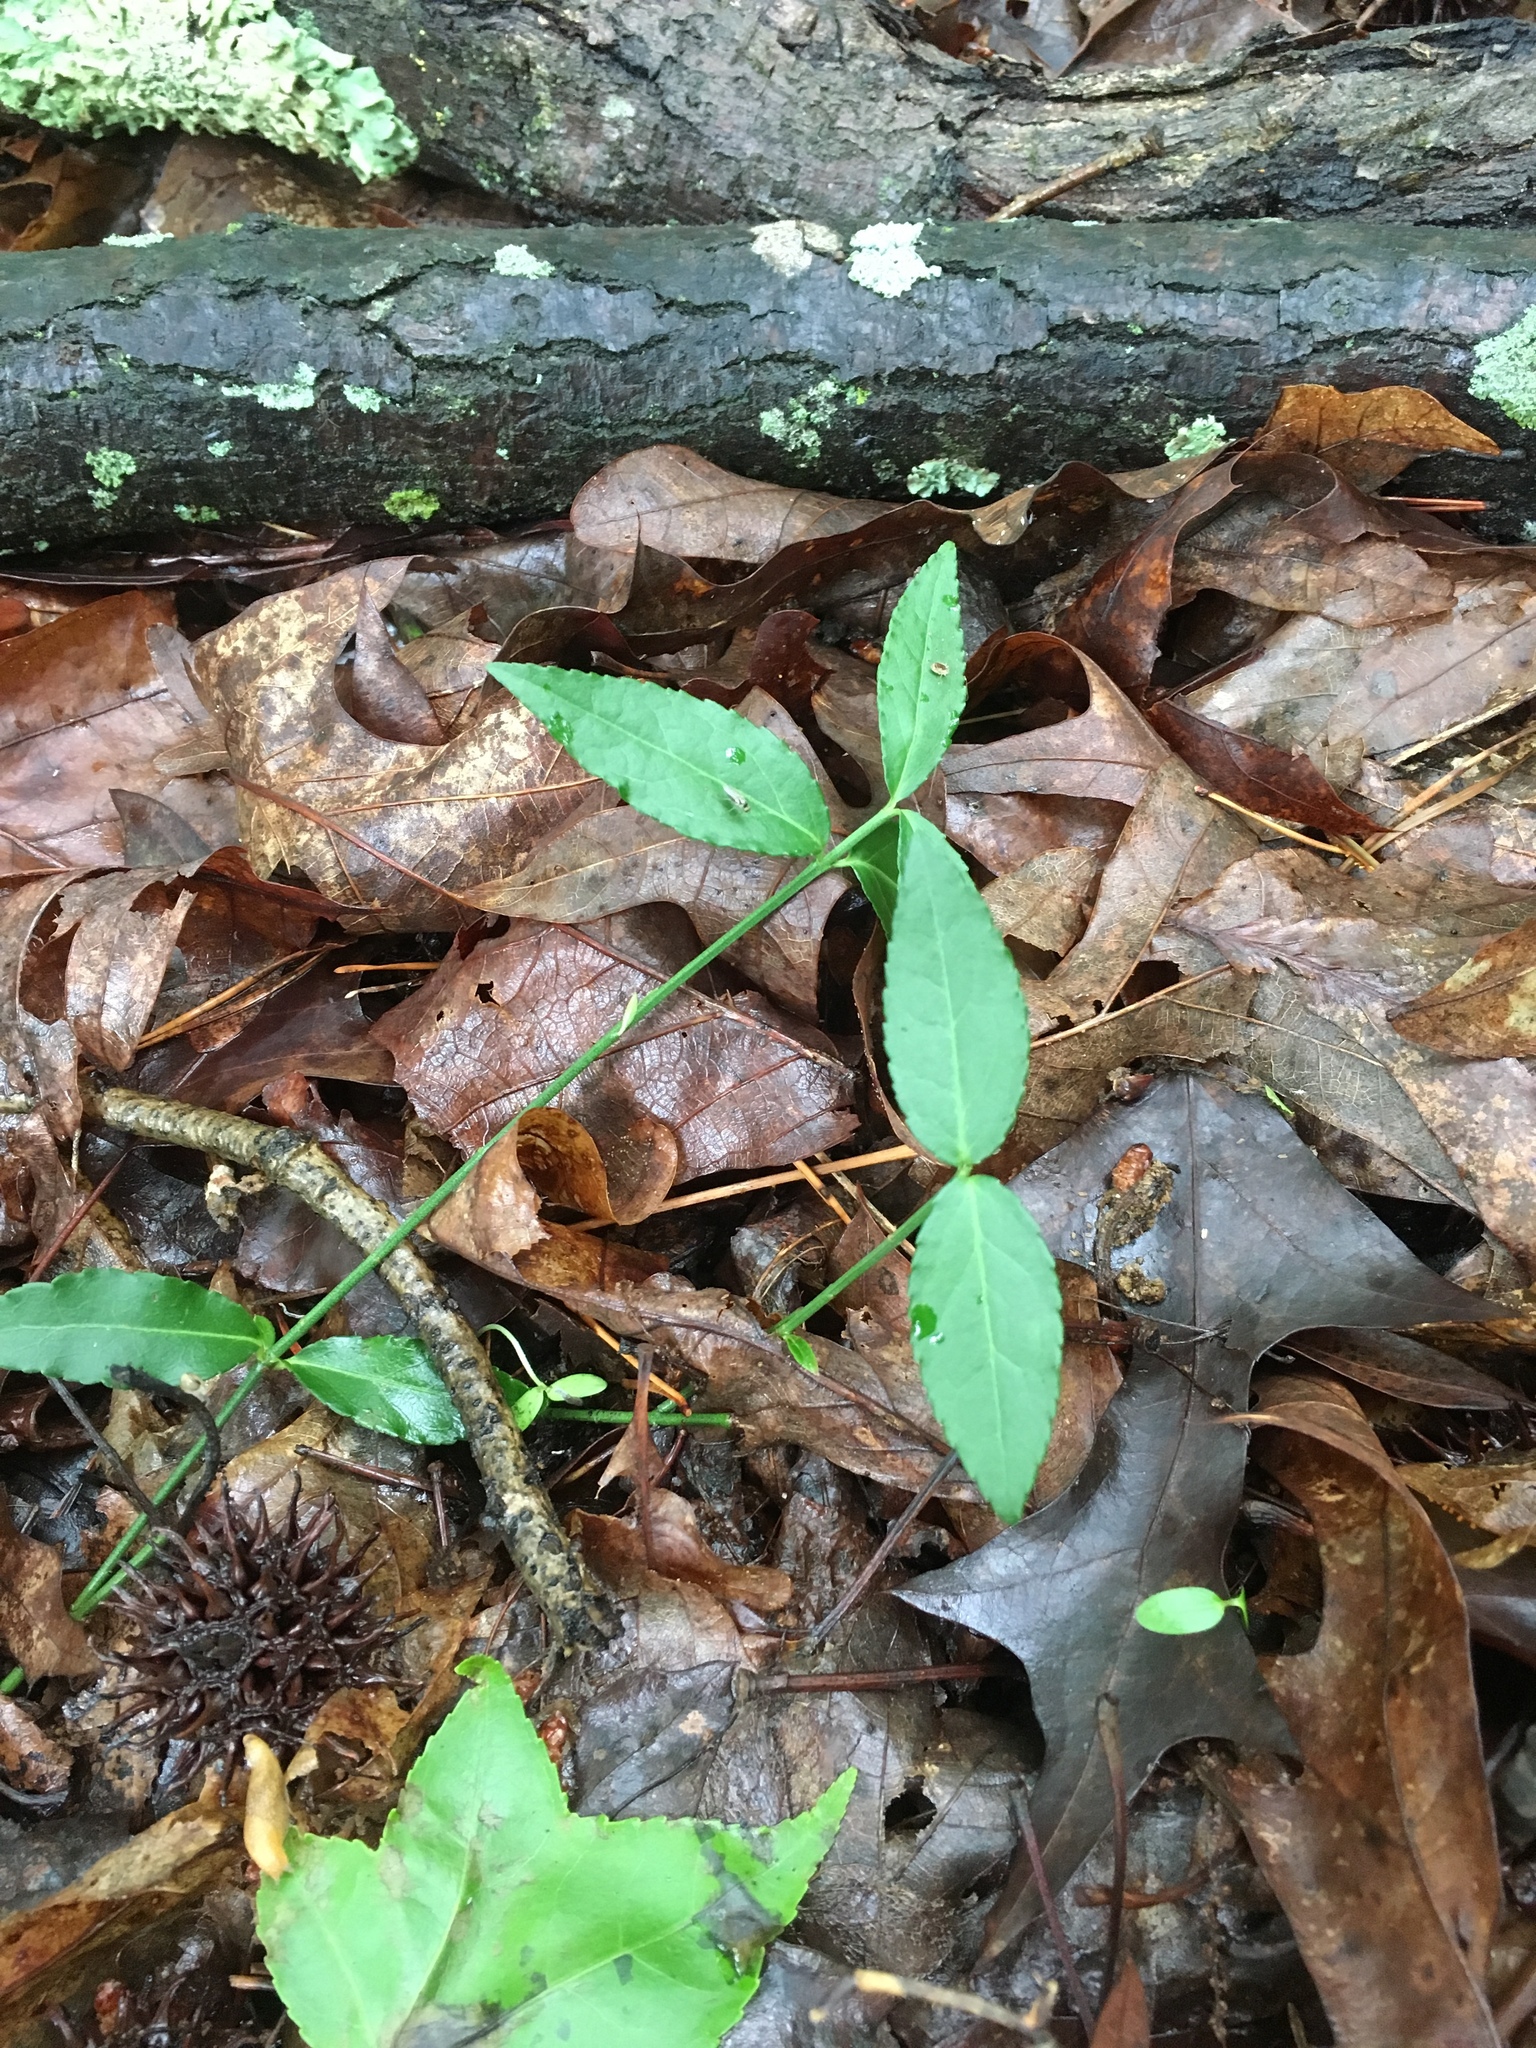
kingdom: Plantae
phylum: Tracheophyta
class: Magnoliopsida
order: Celastrales
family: Celastraceae
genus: Euonymus
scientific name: Euonymus americanus
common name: Bursting-heart
